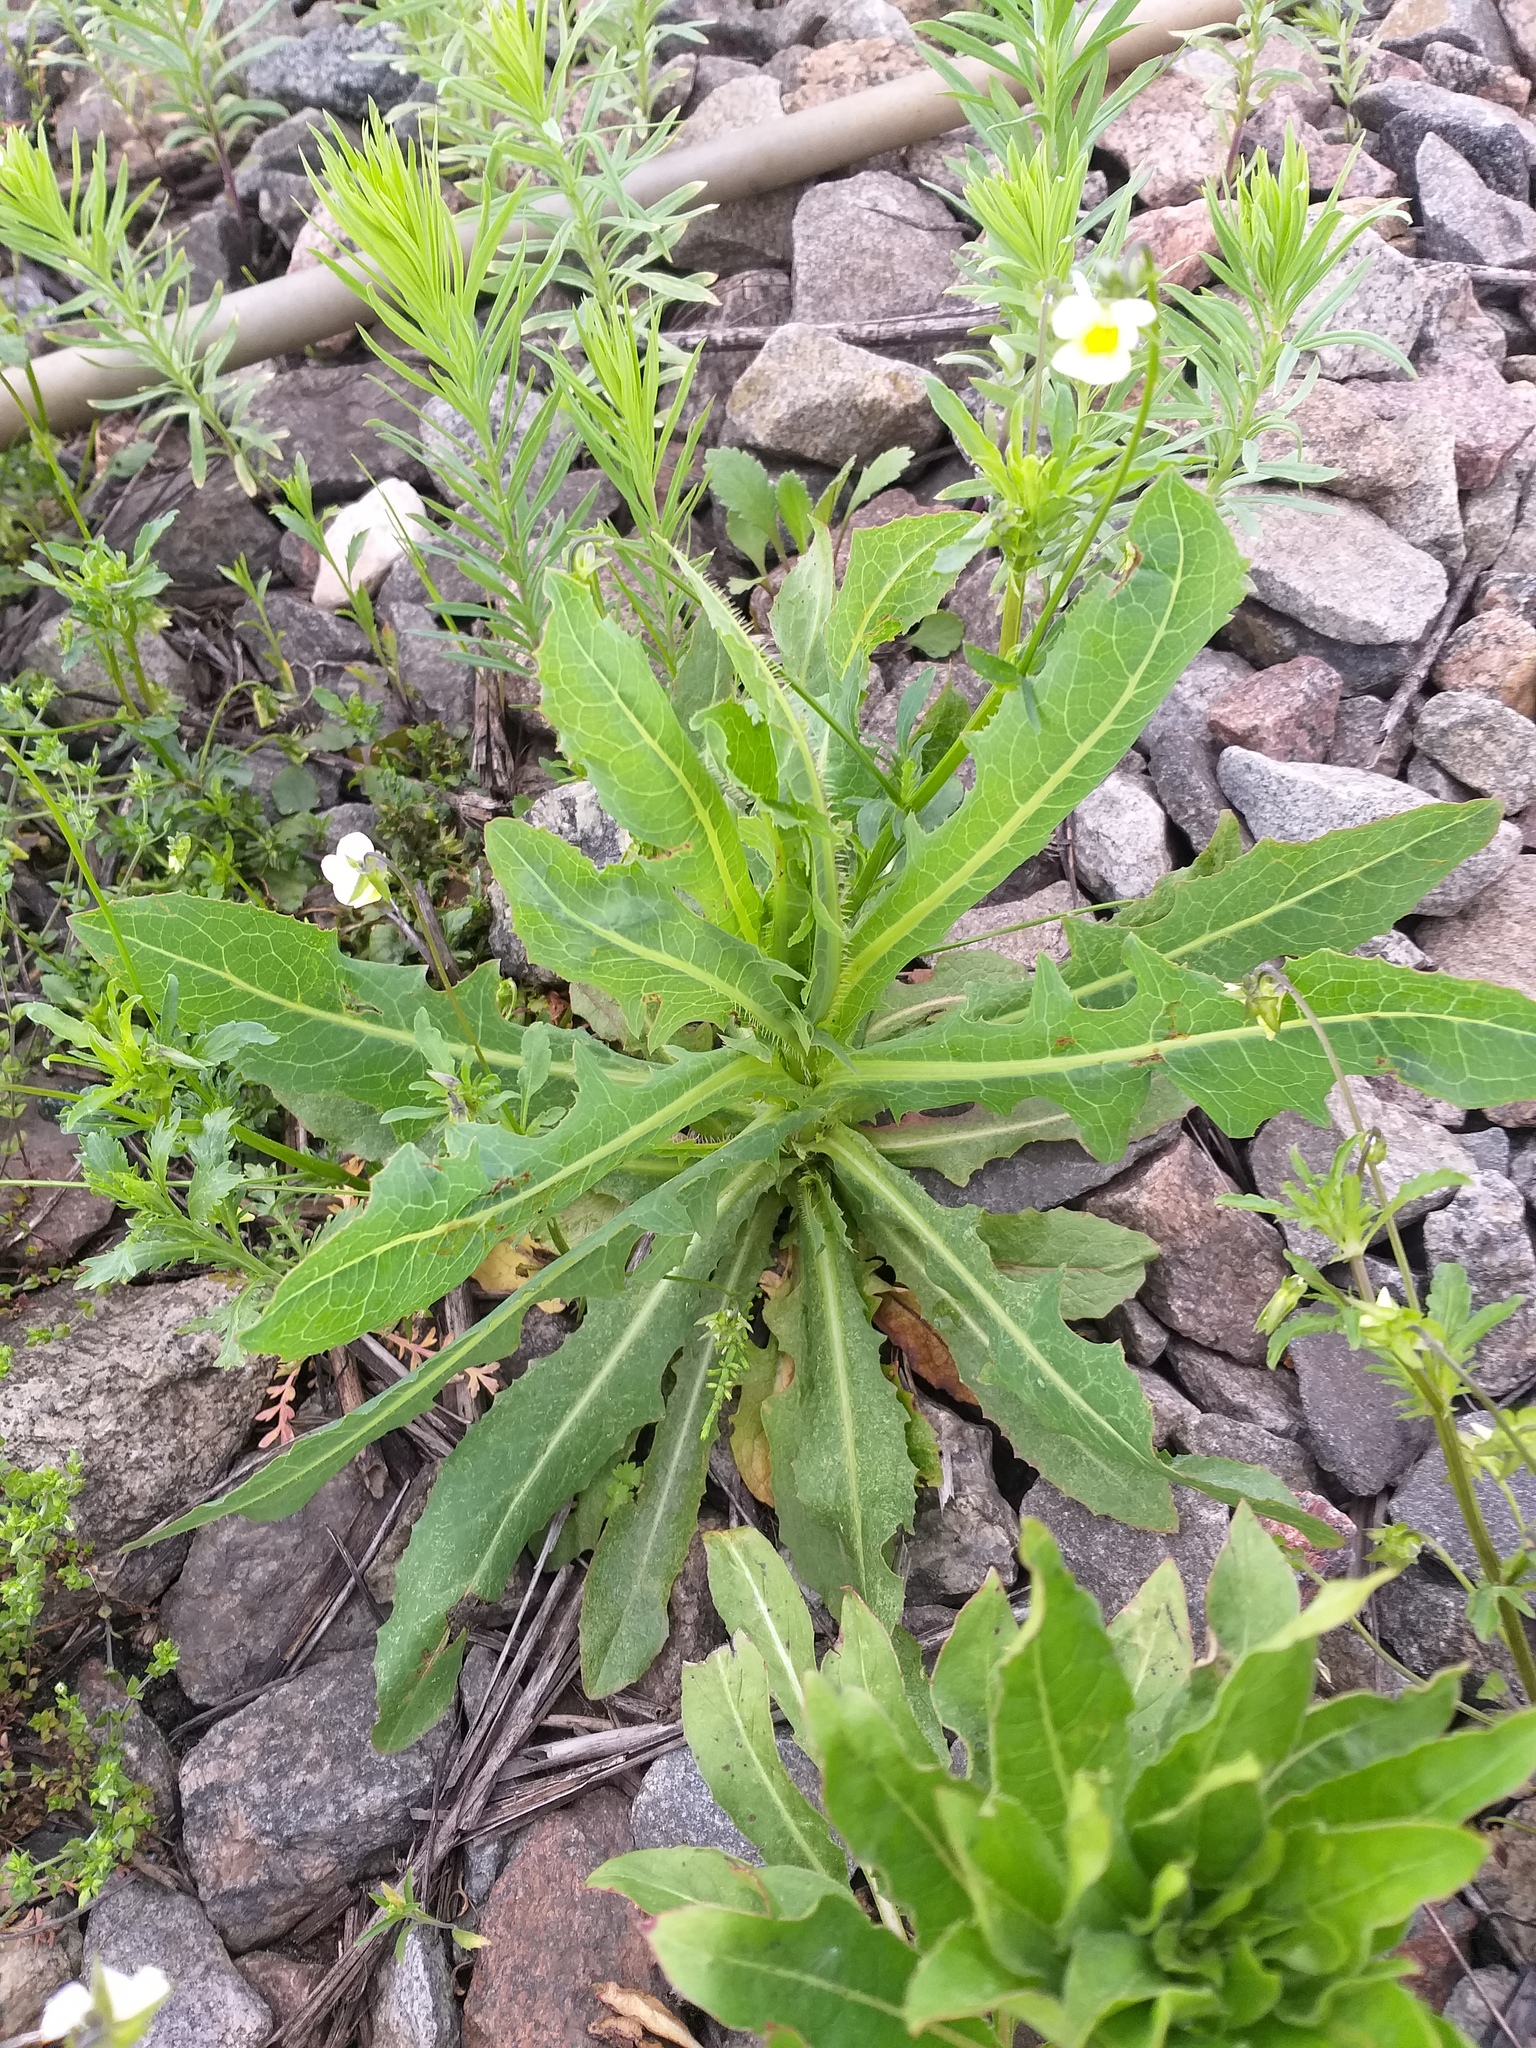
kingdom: Plantae
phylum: Tracheophyta
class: Magnoliopsida
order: Asterales
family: Asteraceae
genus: Lactuca
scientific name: Lactuca serriola
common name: Prickly lettuce
